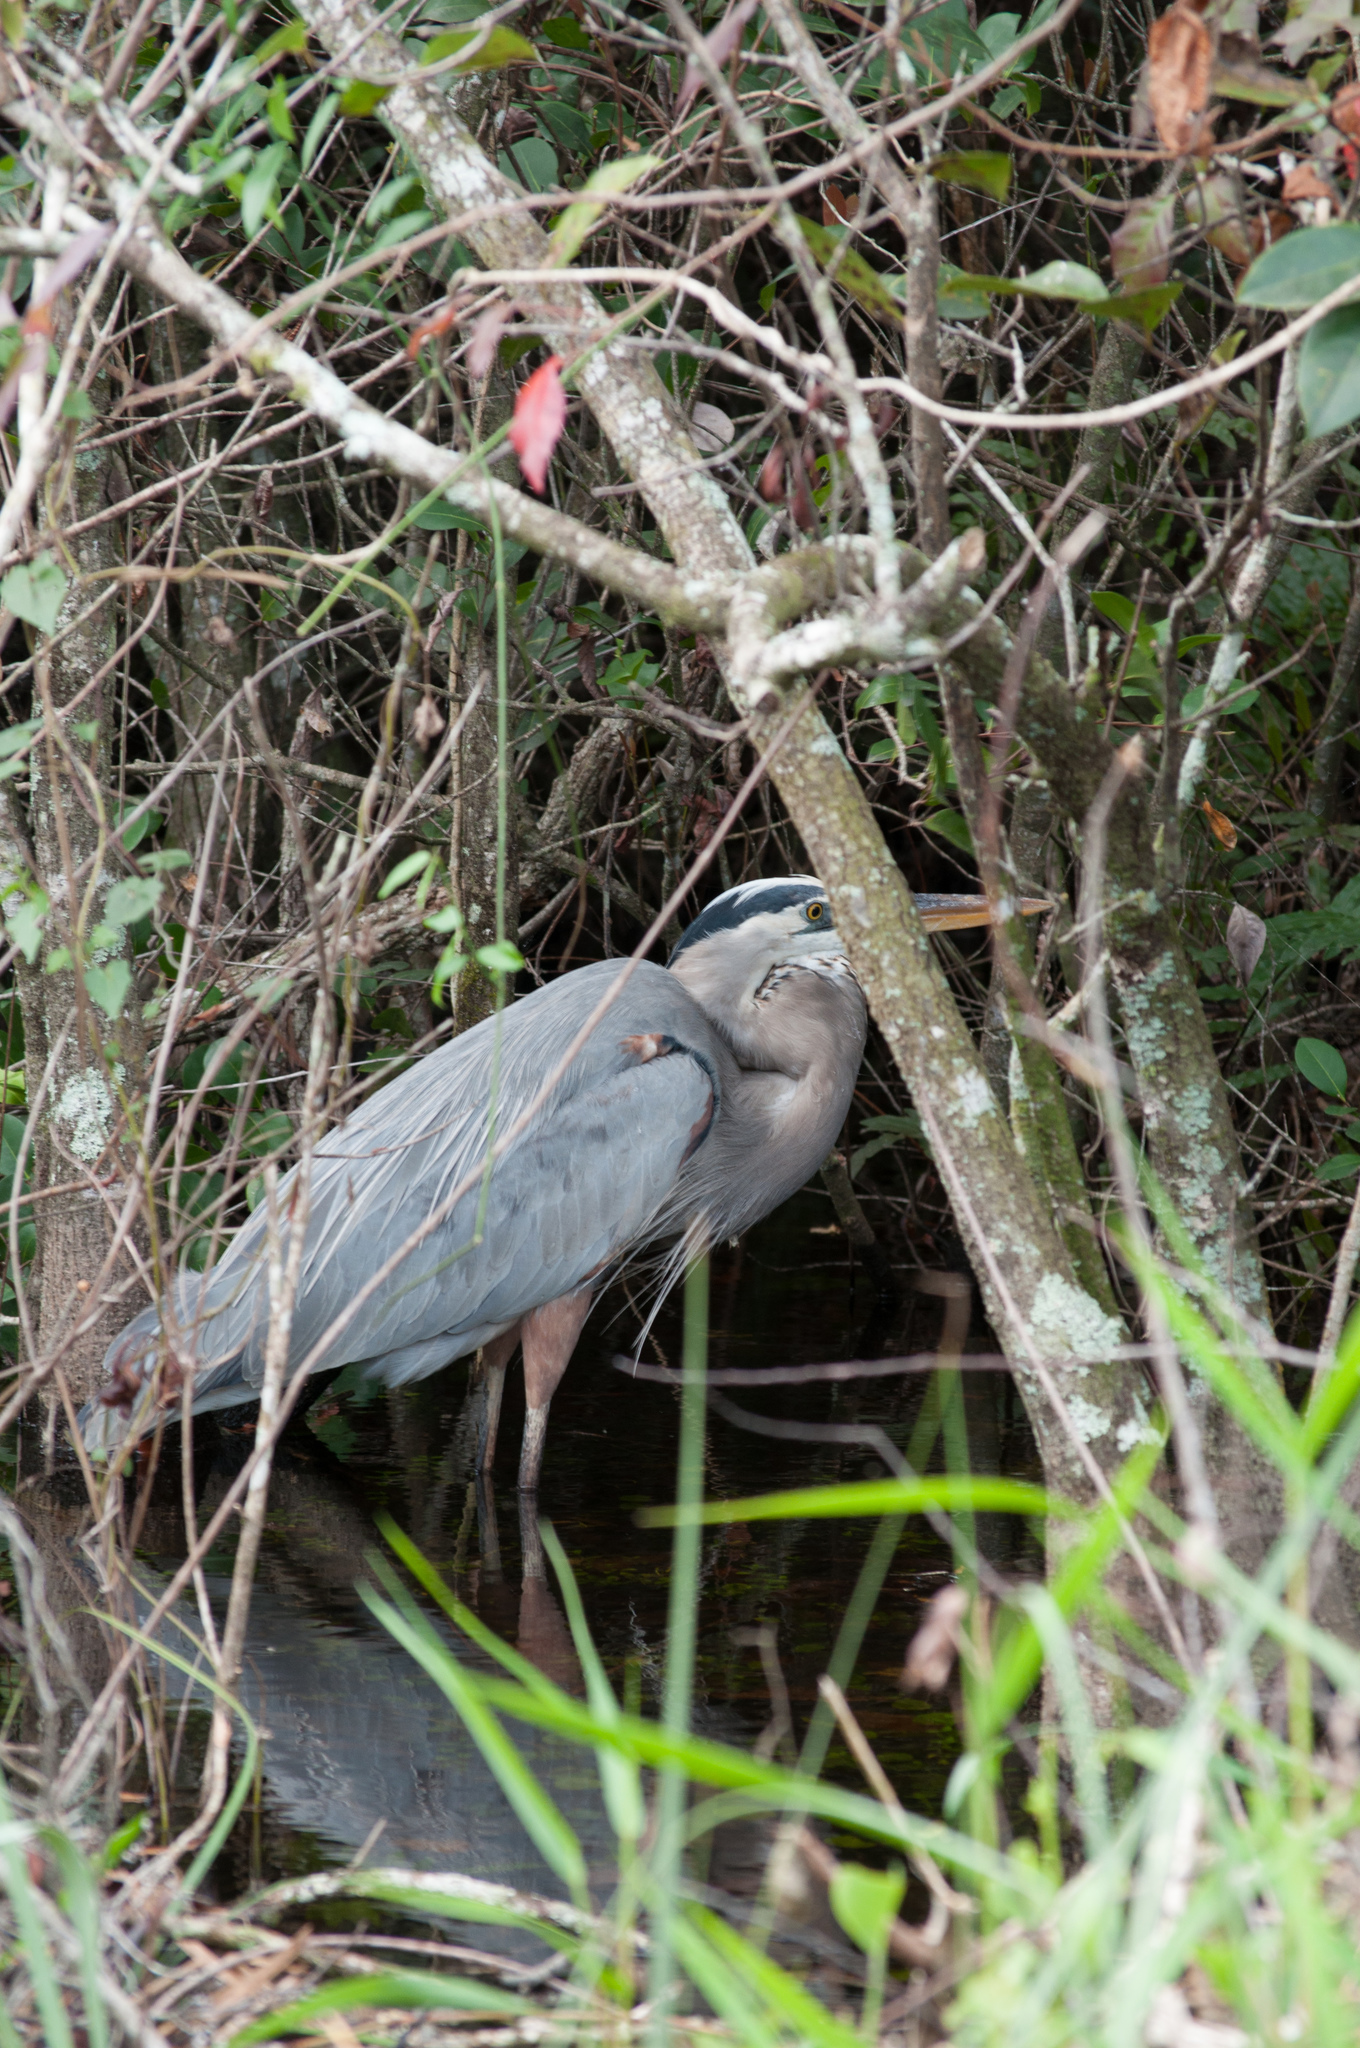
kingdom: Animalia
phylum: Chordata
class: Aves
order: Pelecaniformes
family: Ardeidae
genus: Ardea
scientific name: Ardea herodias
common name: Great blue heron
